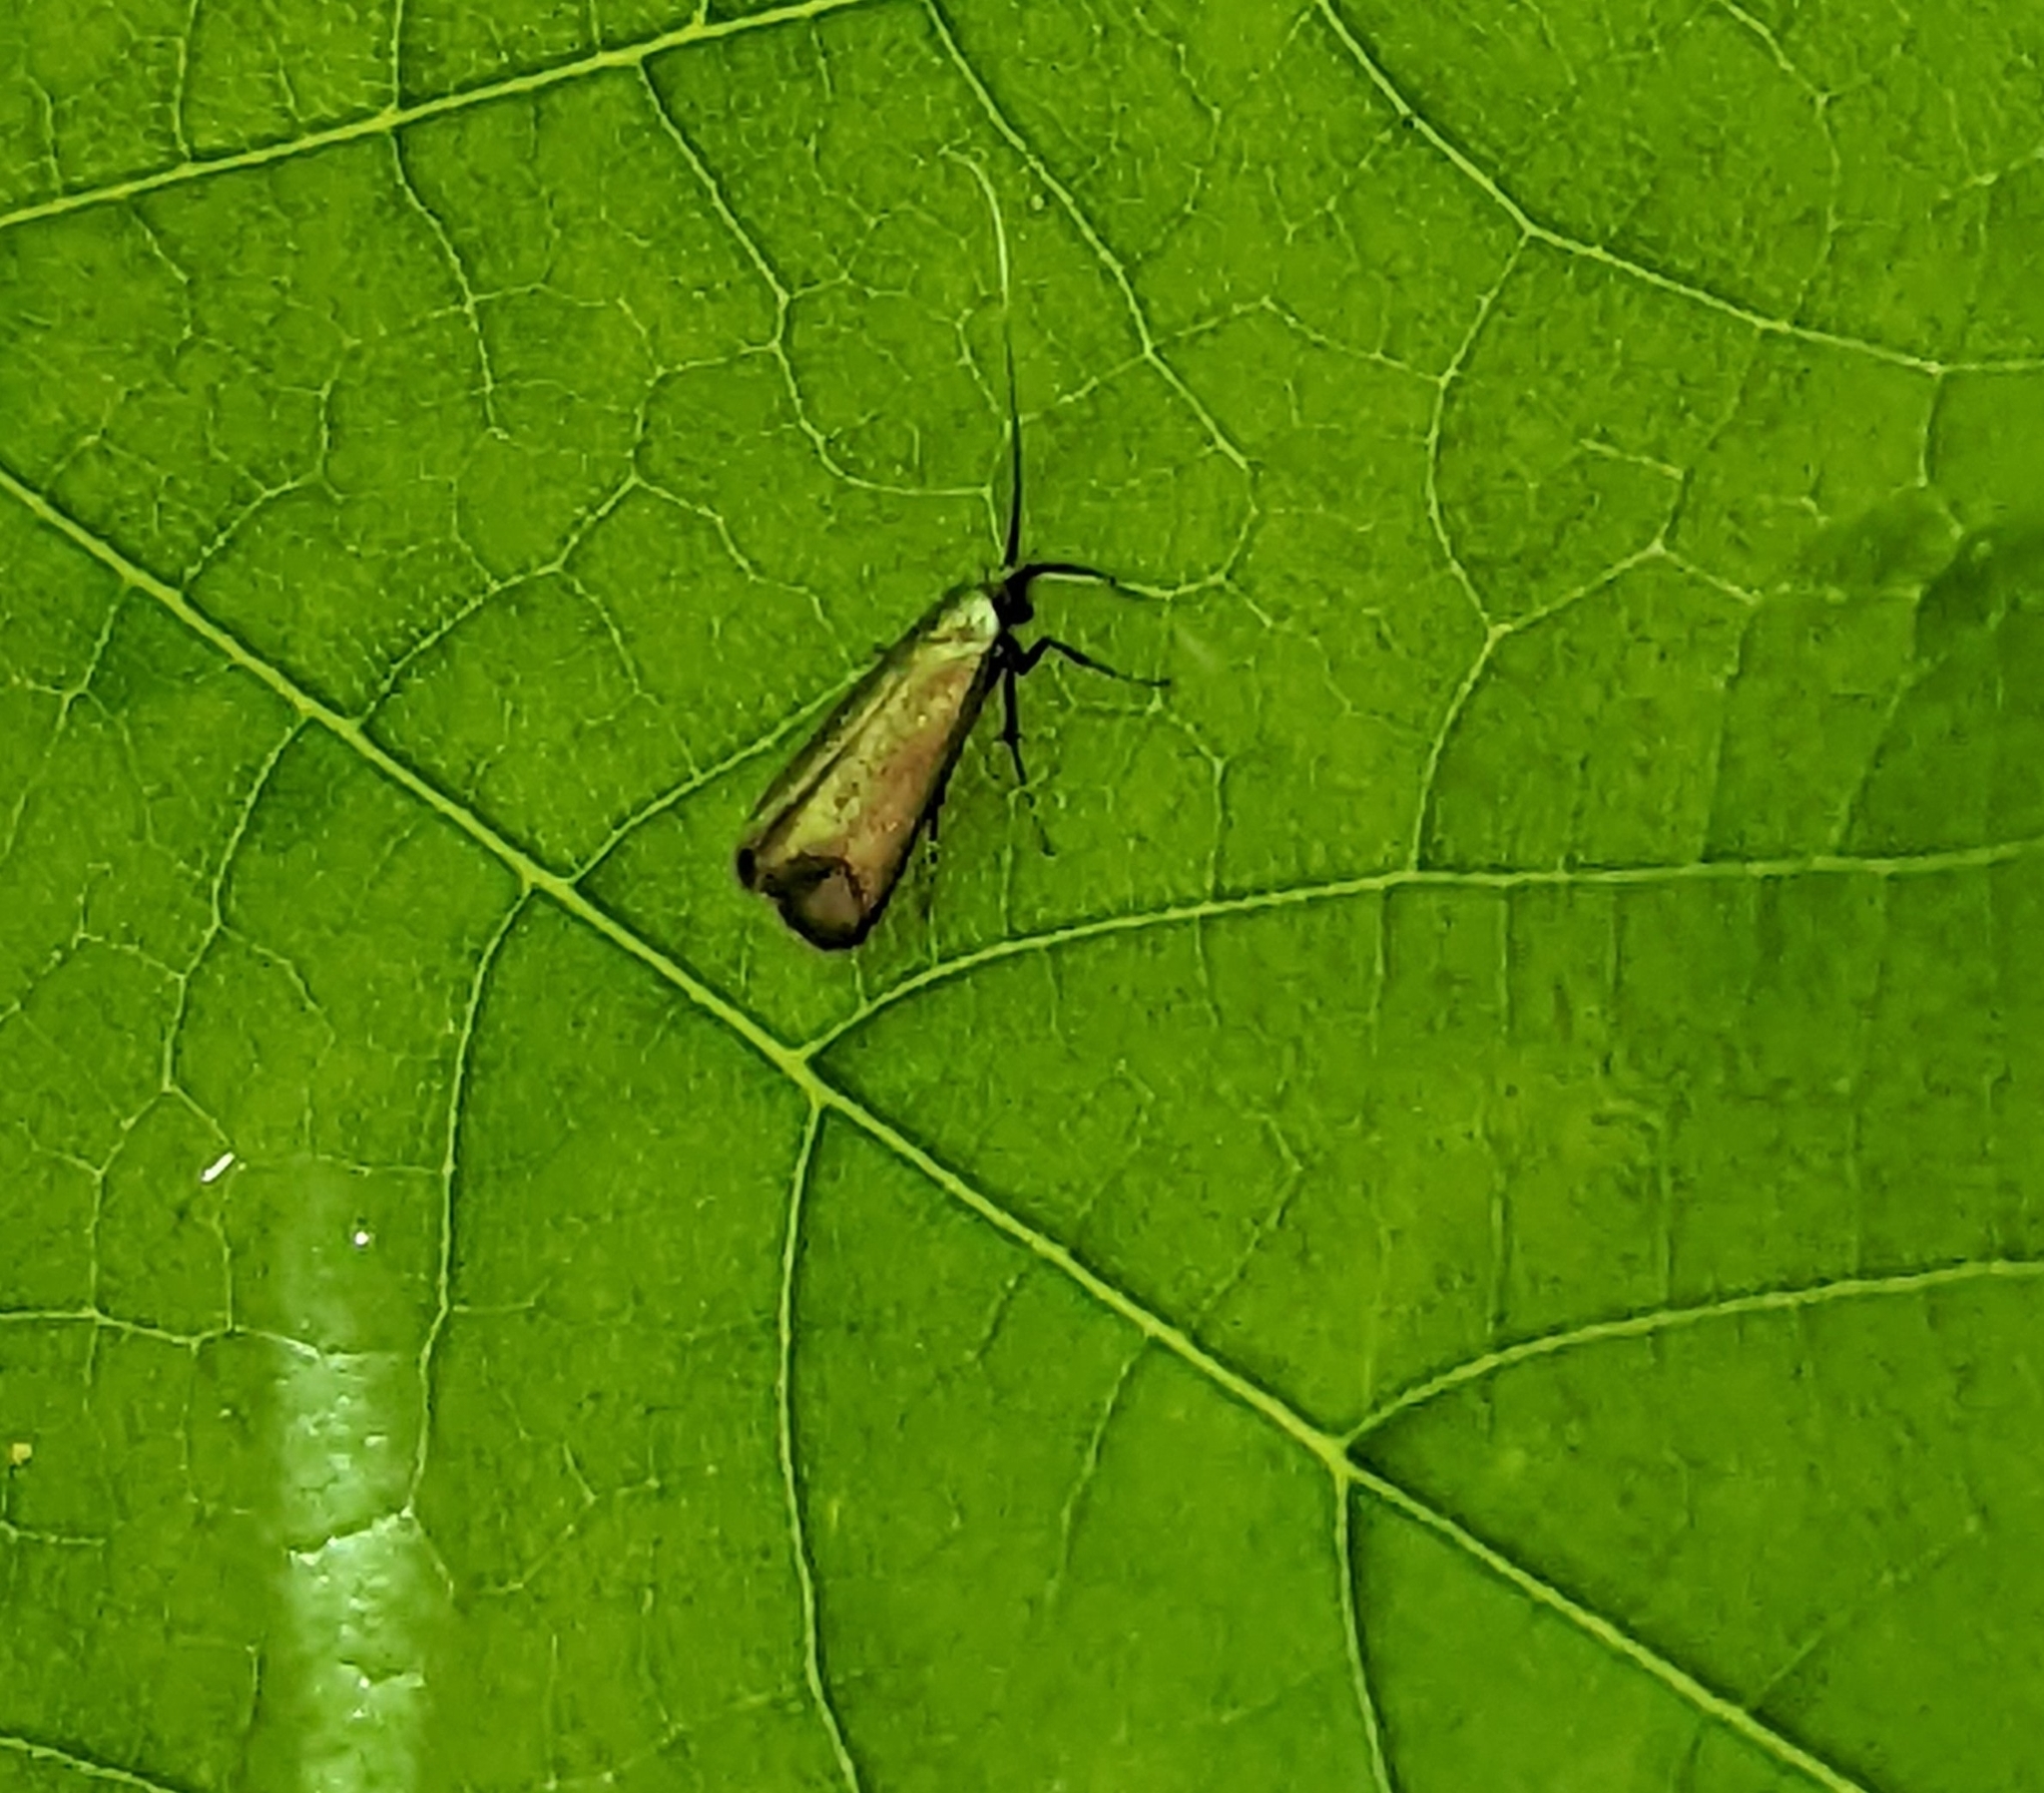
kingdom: Animalia
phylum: Arthropoda
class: Insecta
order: Lepidoptera
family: Adelidae
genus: Adela
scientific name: Adela viridella
